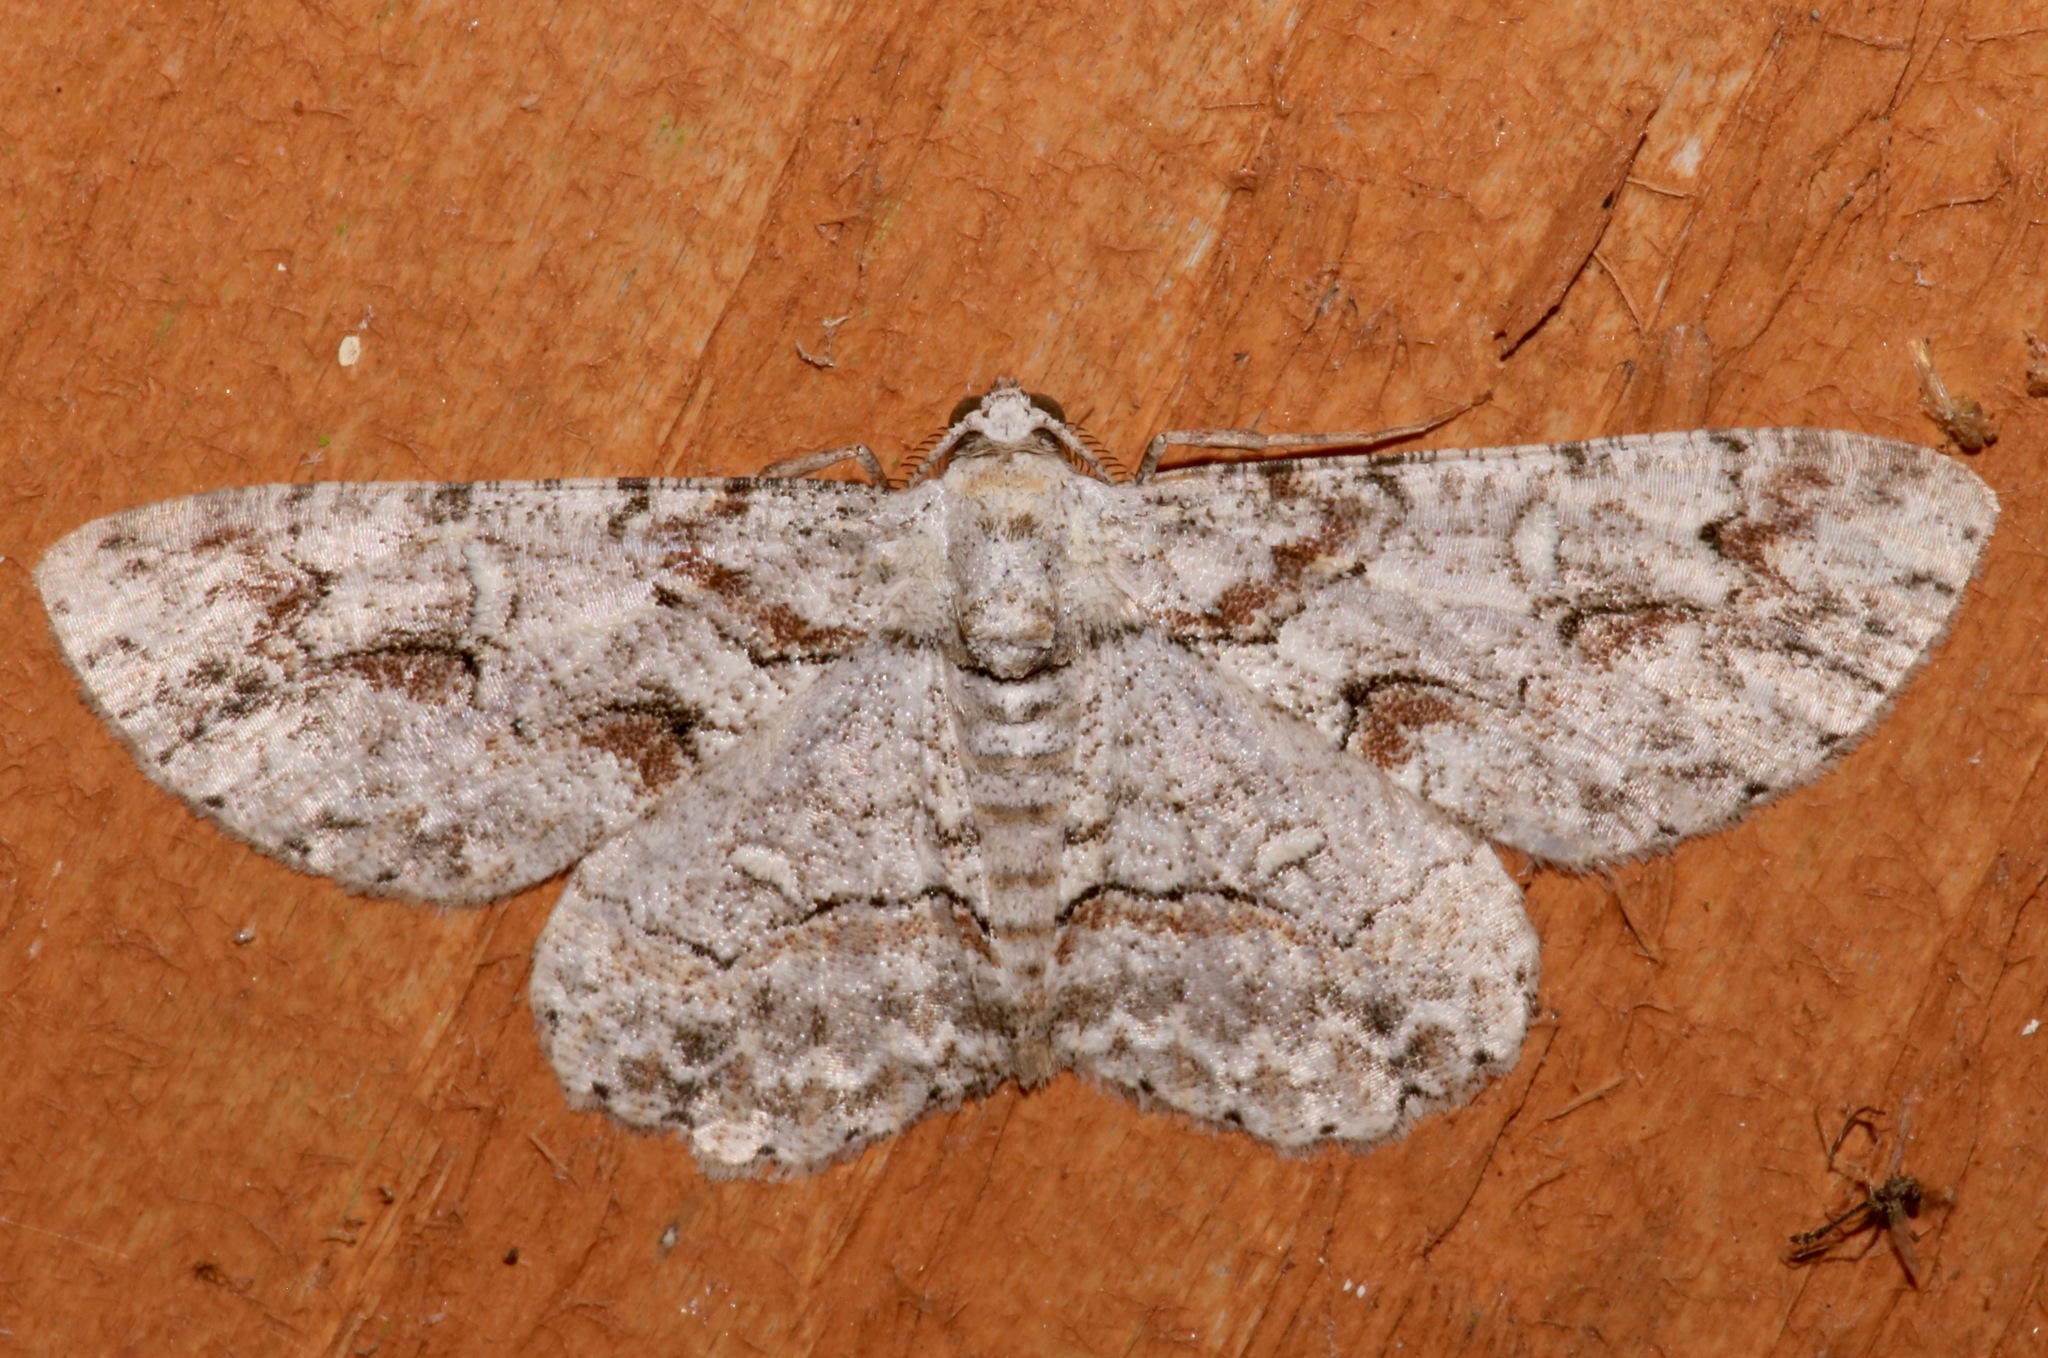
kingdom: Animalia
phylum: Arthropoda
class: Insecta
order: Lepidoptera
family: Geometridae
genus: Iridopsis
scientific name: Iridopsis defectaria
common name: Brown-shaded gray
